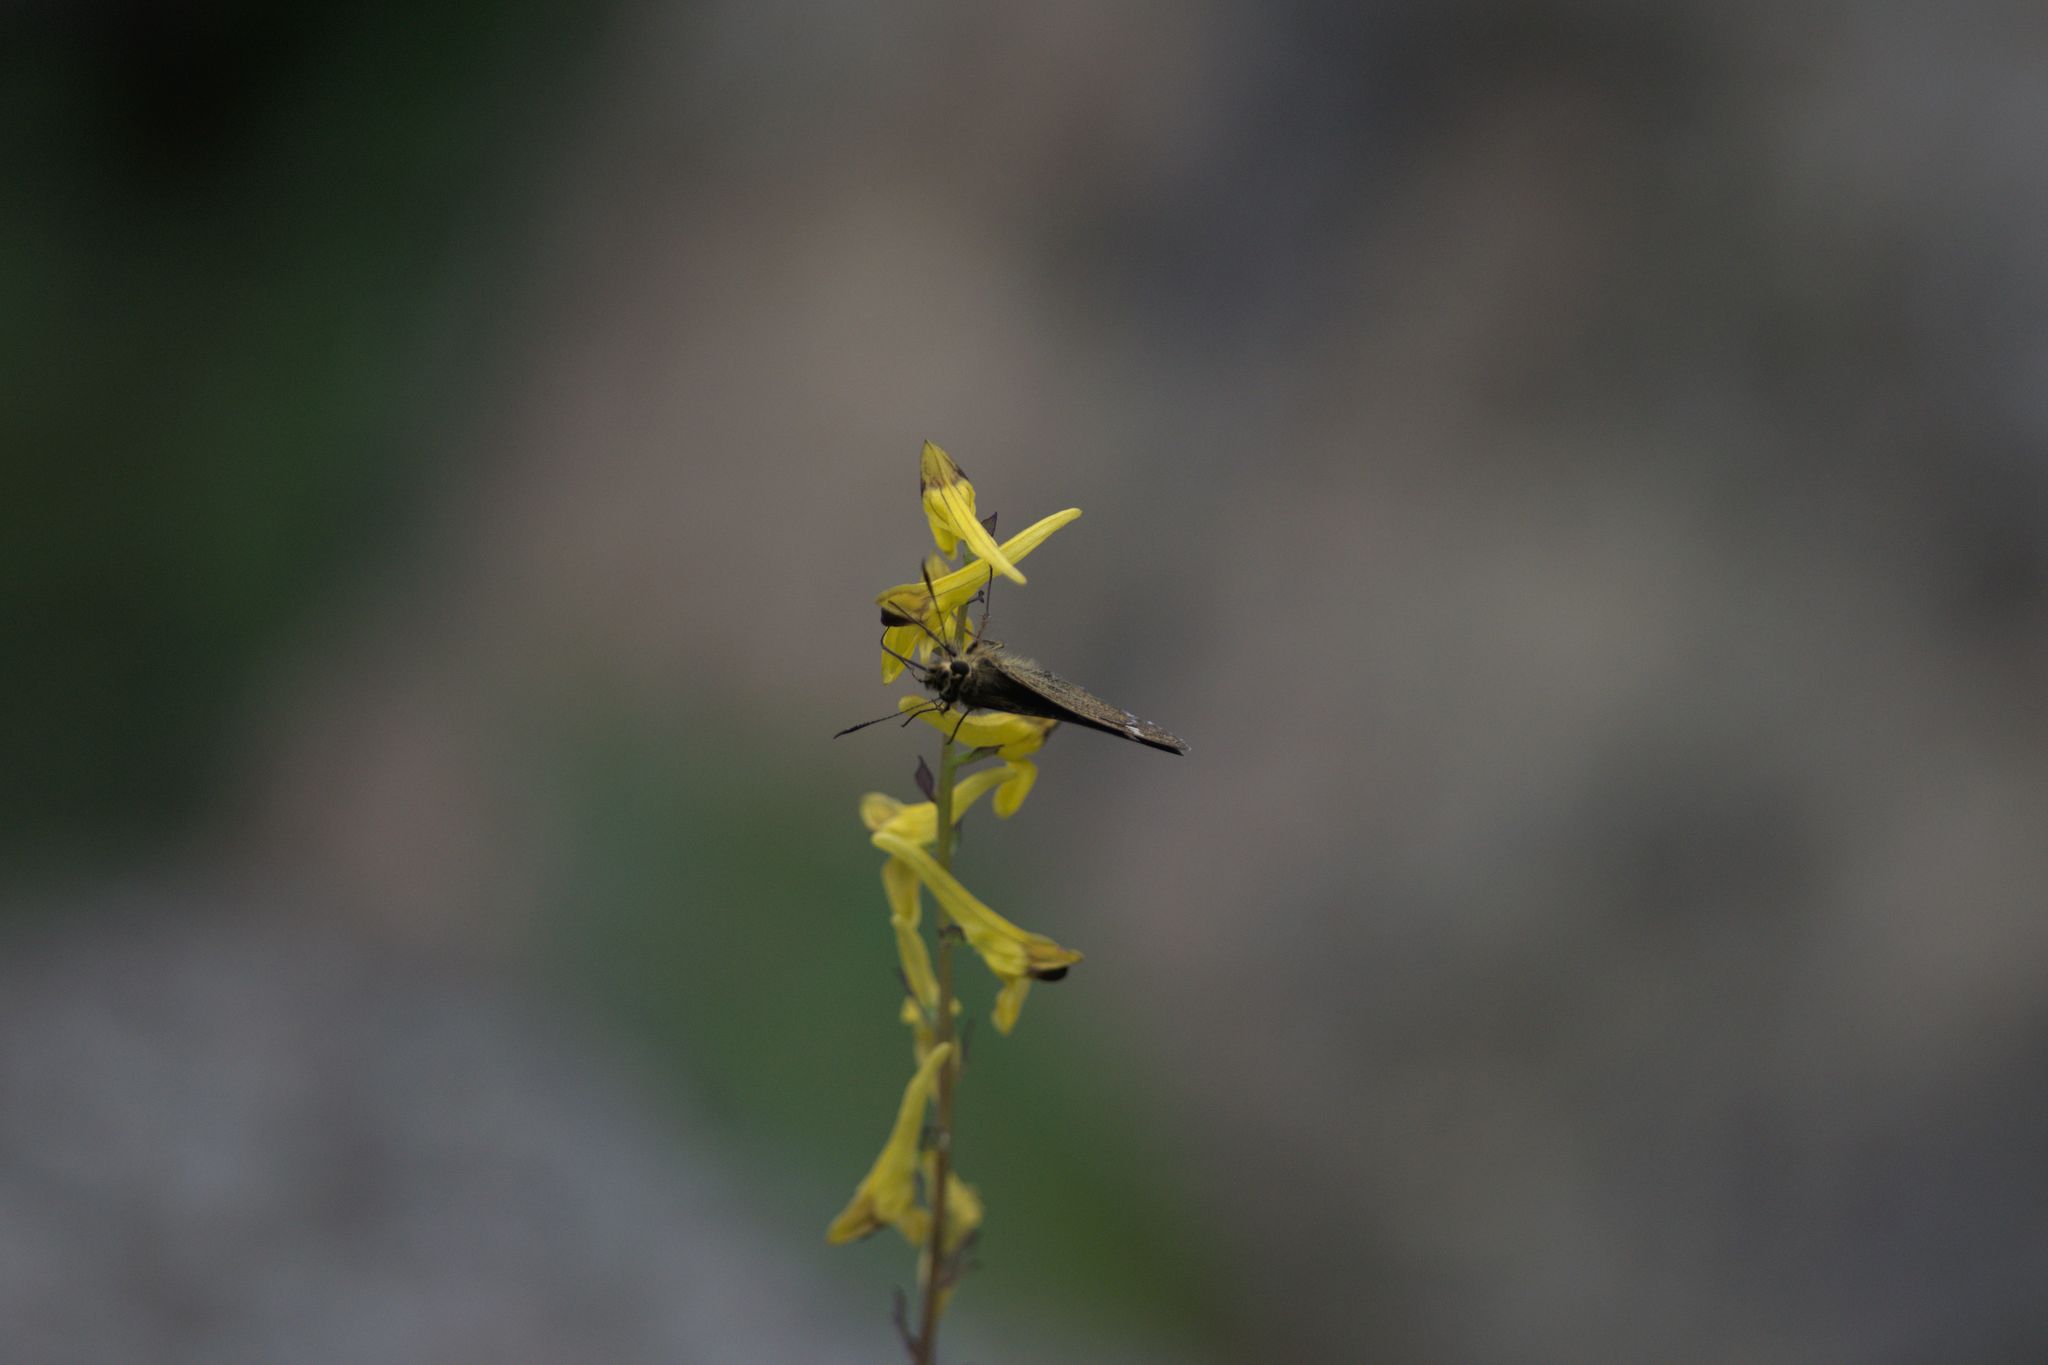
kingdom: Plantae
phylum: Tracheophyta
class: Magnoliopsida
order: Ranunculales
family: Papaveraceae
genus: Corydalis
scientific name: Corydalis cornuta
